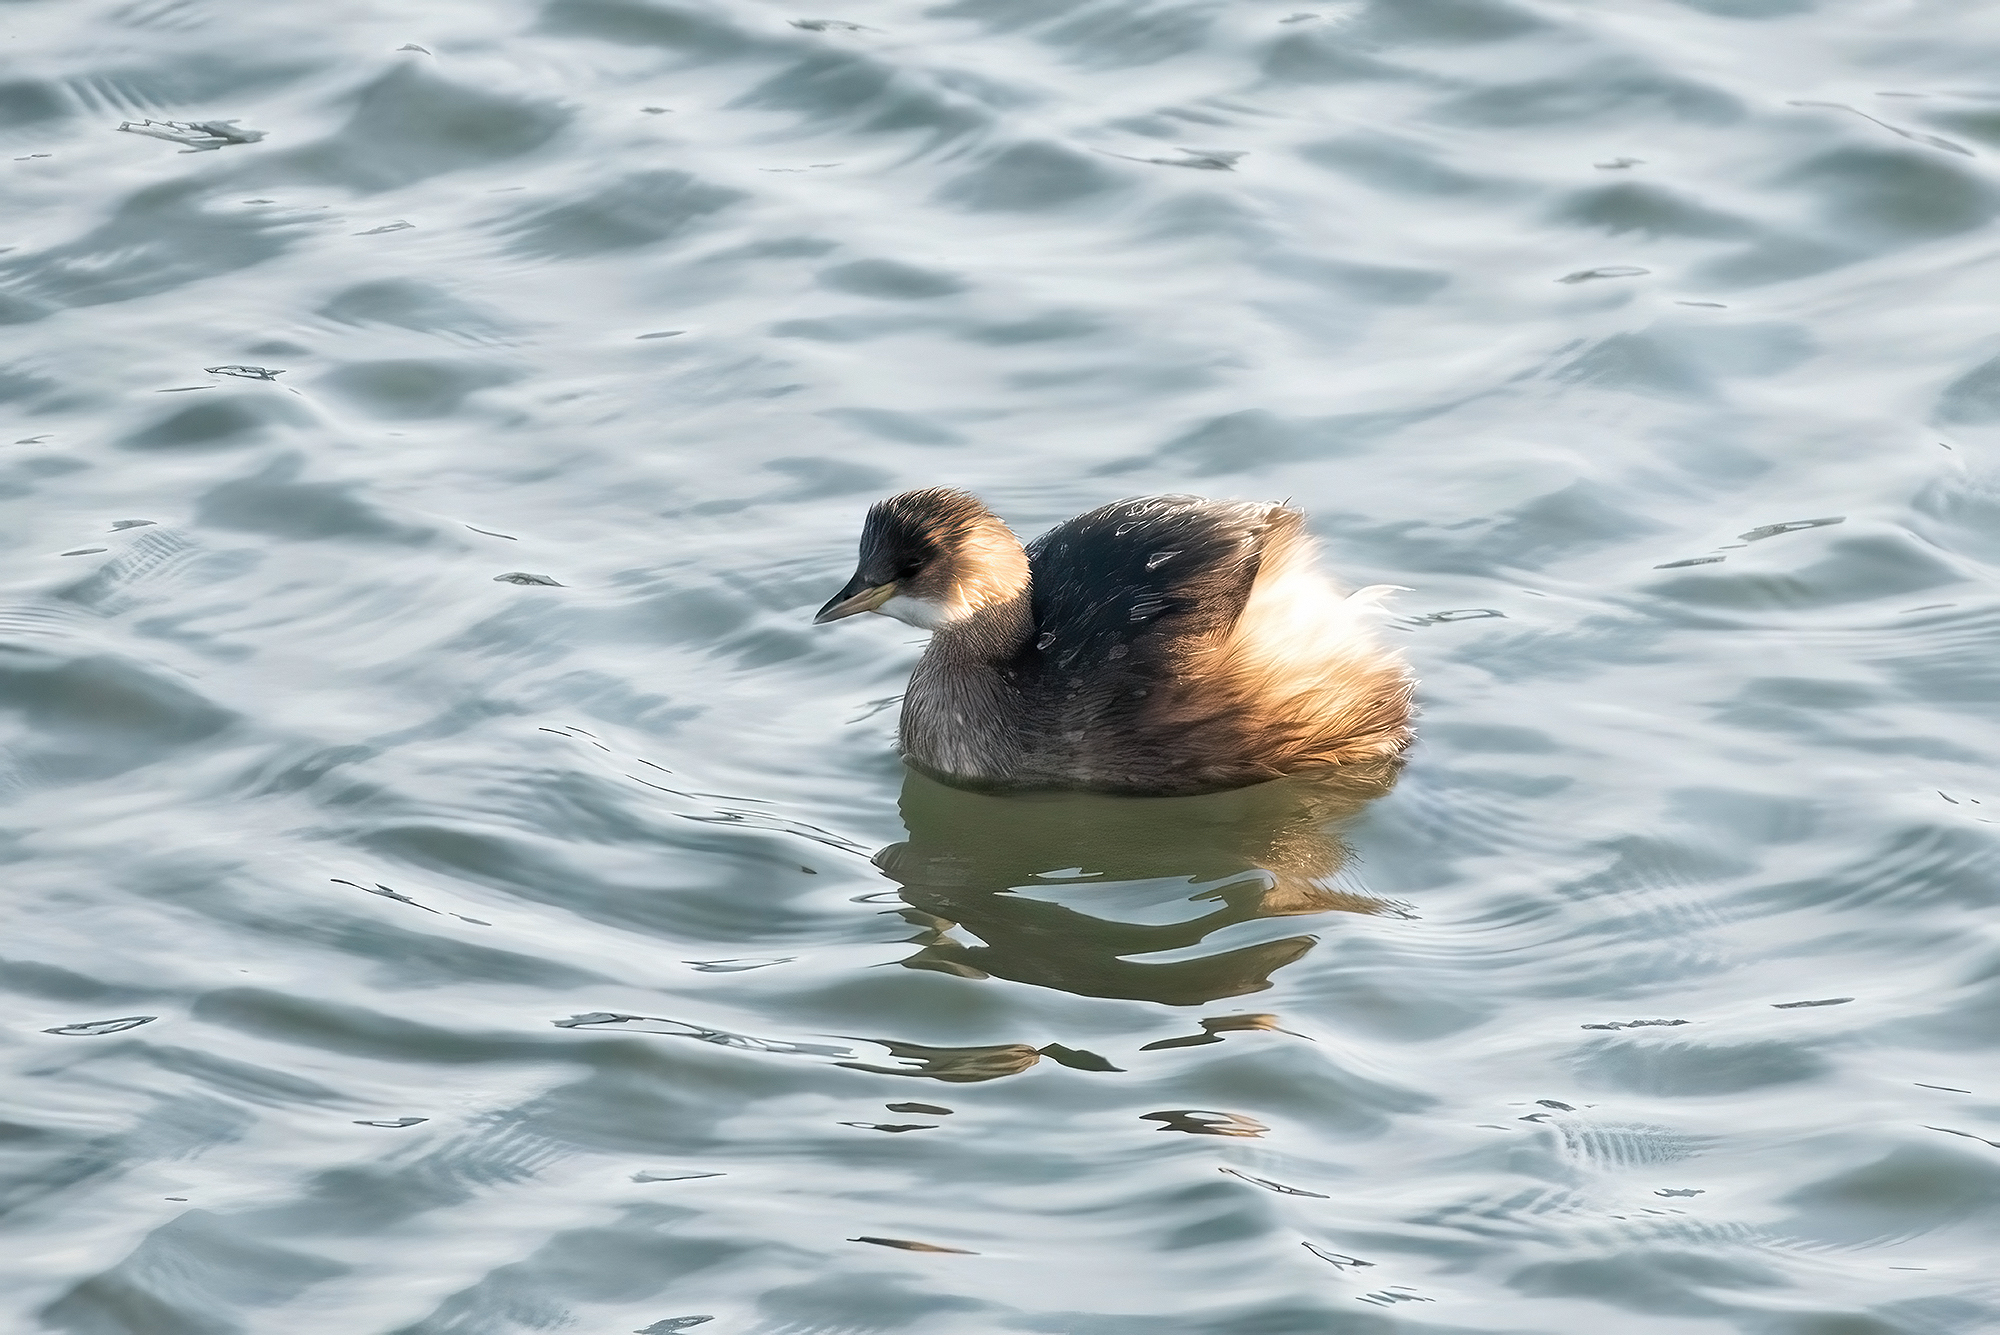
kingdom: Animalia
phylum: Chordata
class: Aves
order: Podicipediformes
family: Podicipedidae
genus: Tachybaptus
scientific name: Tachybaptus ruficollis
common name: Little grebe
